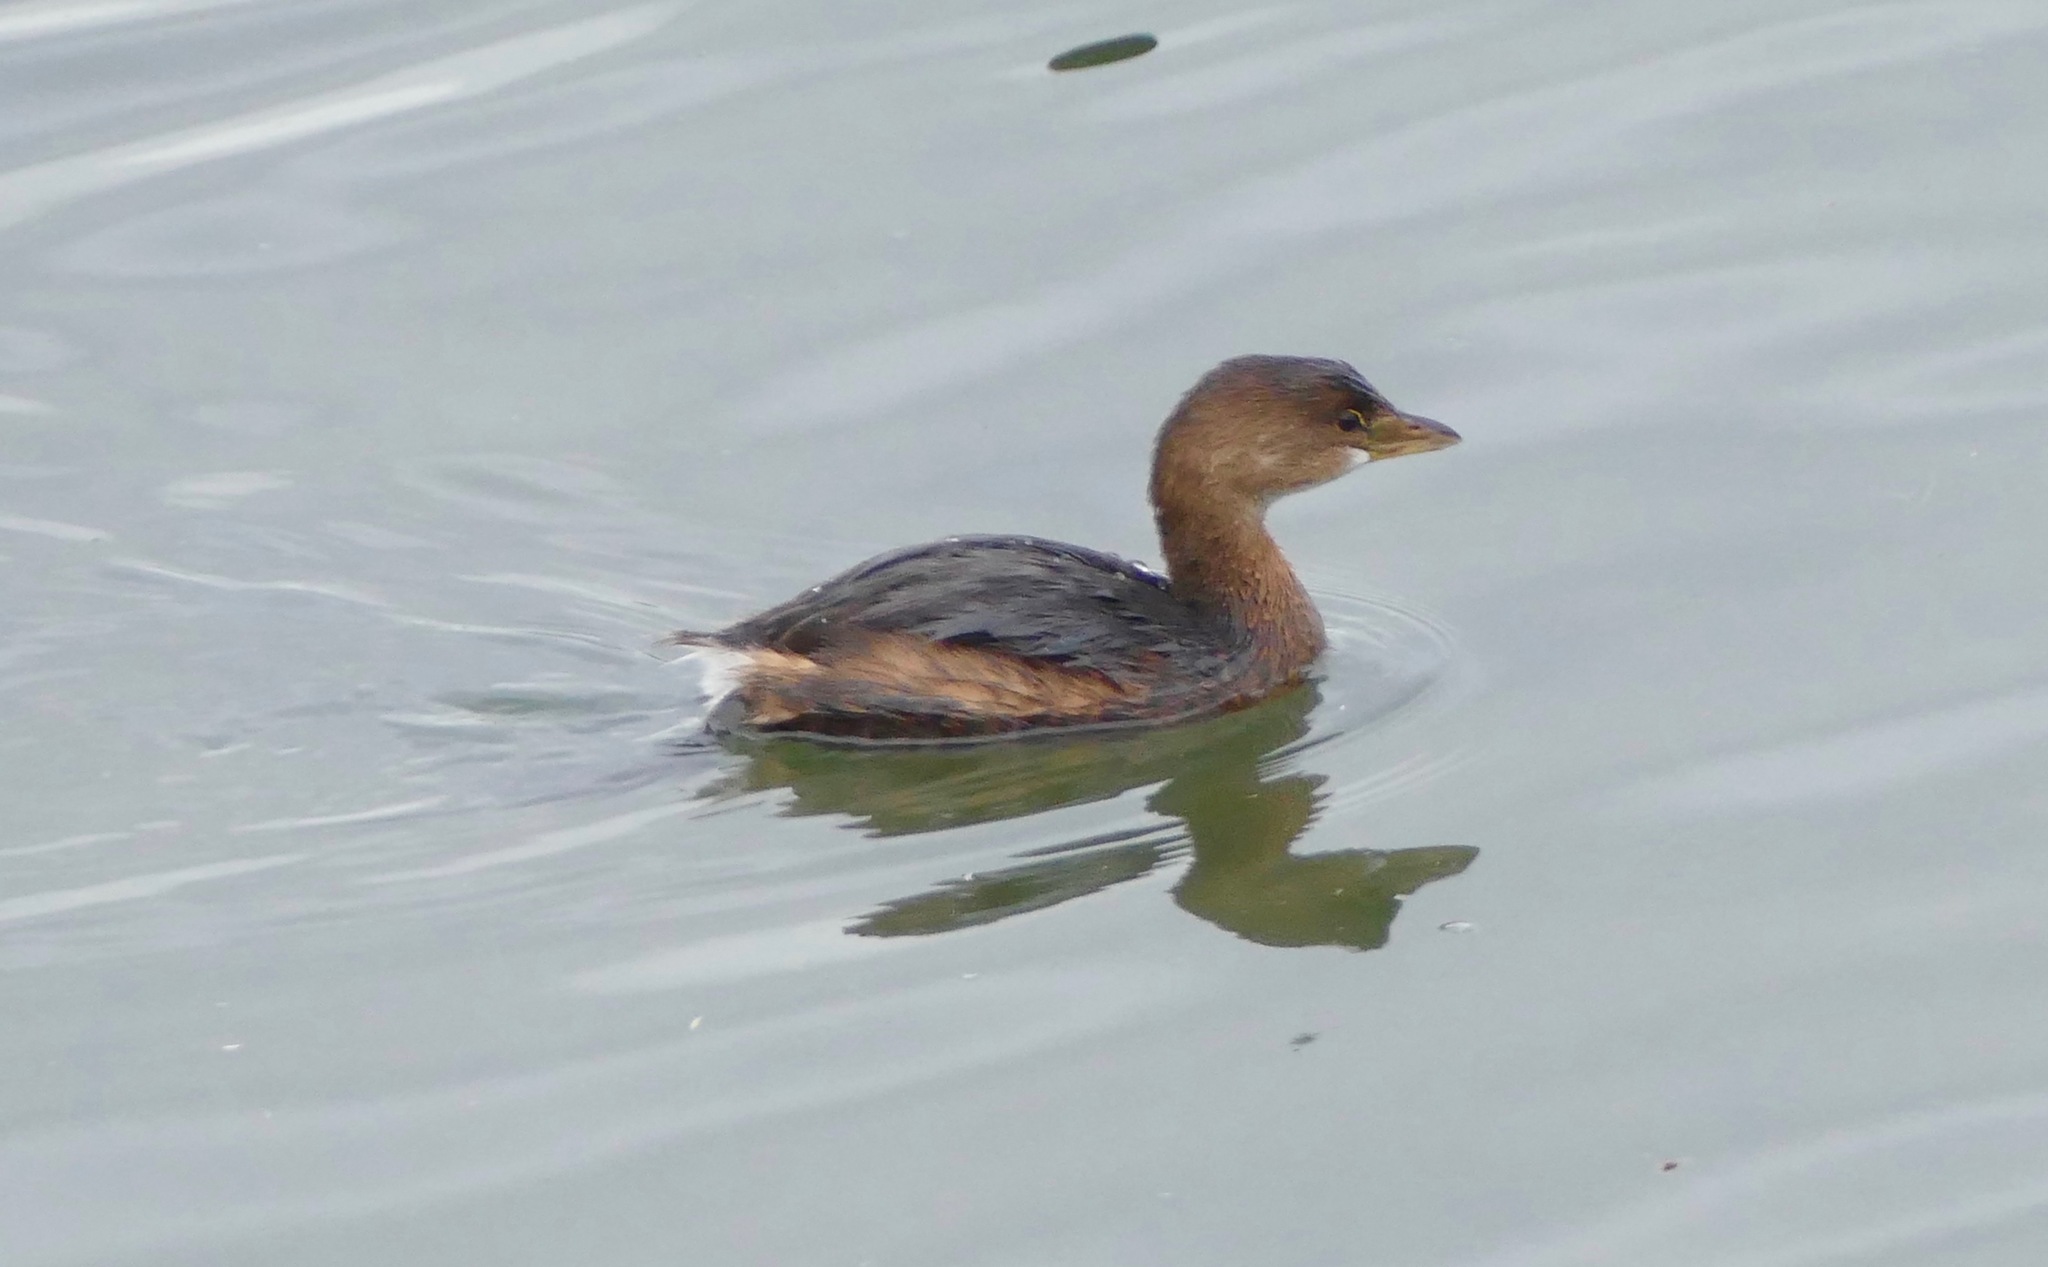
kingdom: Animalia
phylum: Chordata
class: Aves
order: Podicipediformes
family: Podicipedidae
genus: Podilymbus
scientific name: Podilymbus podiceps
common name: Pied-billed grebe
